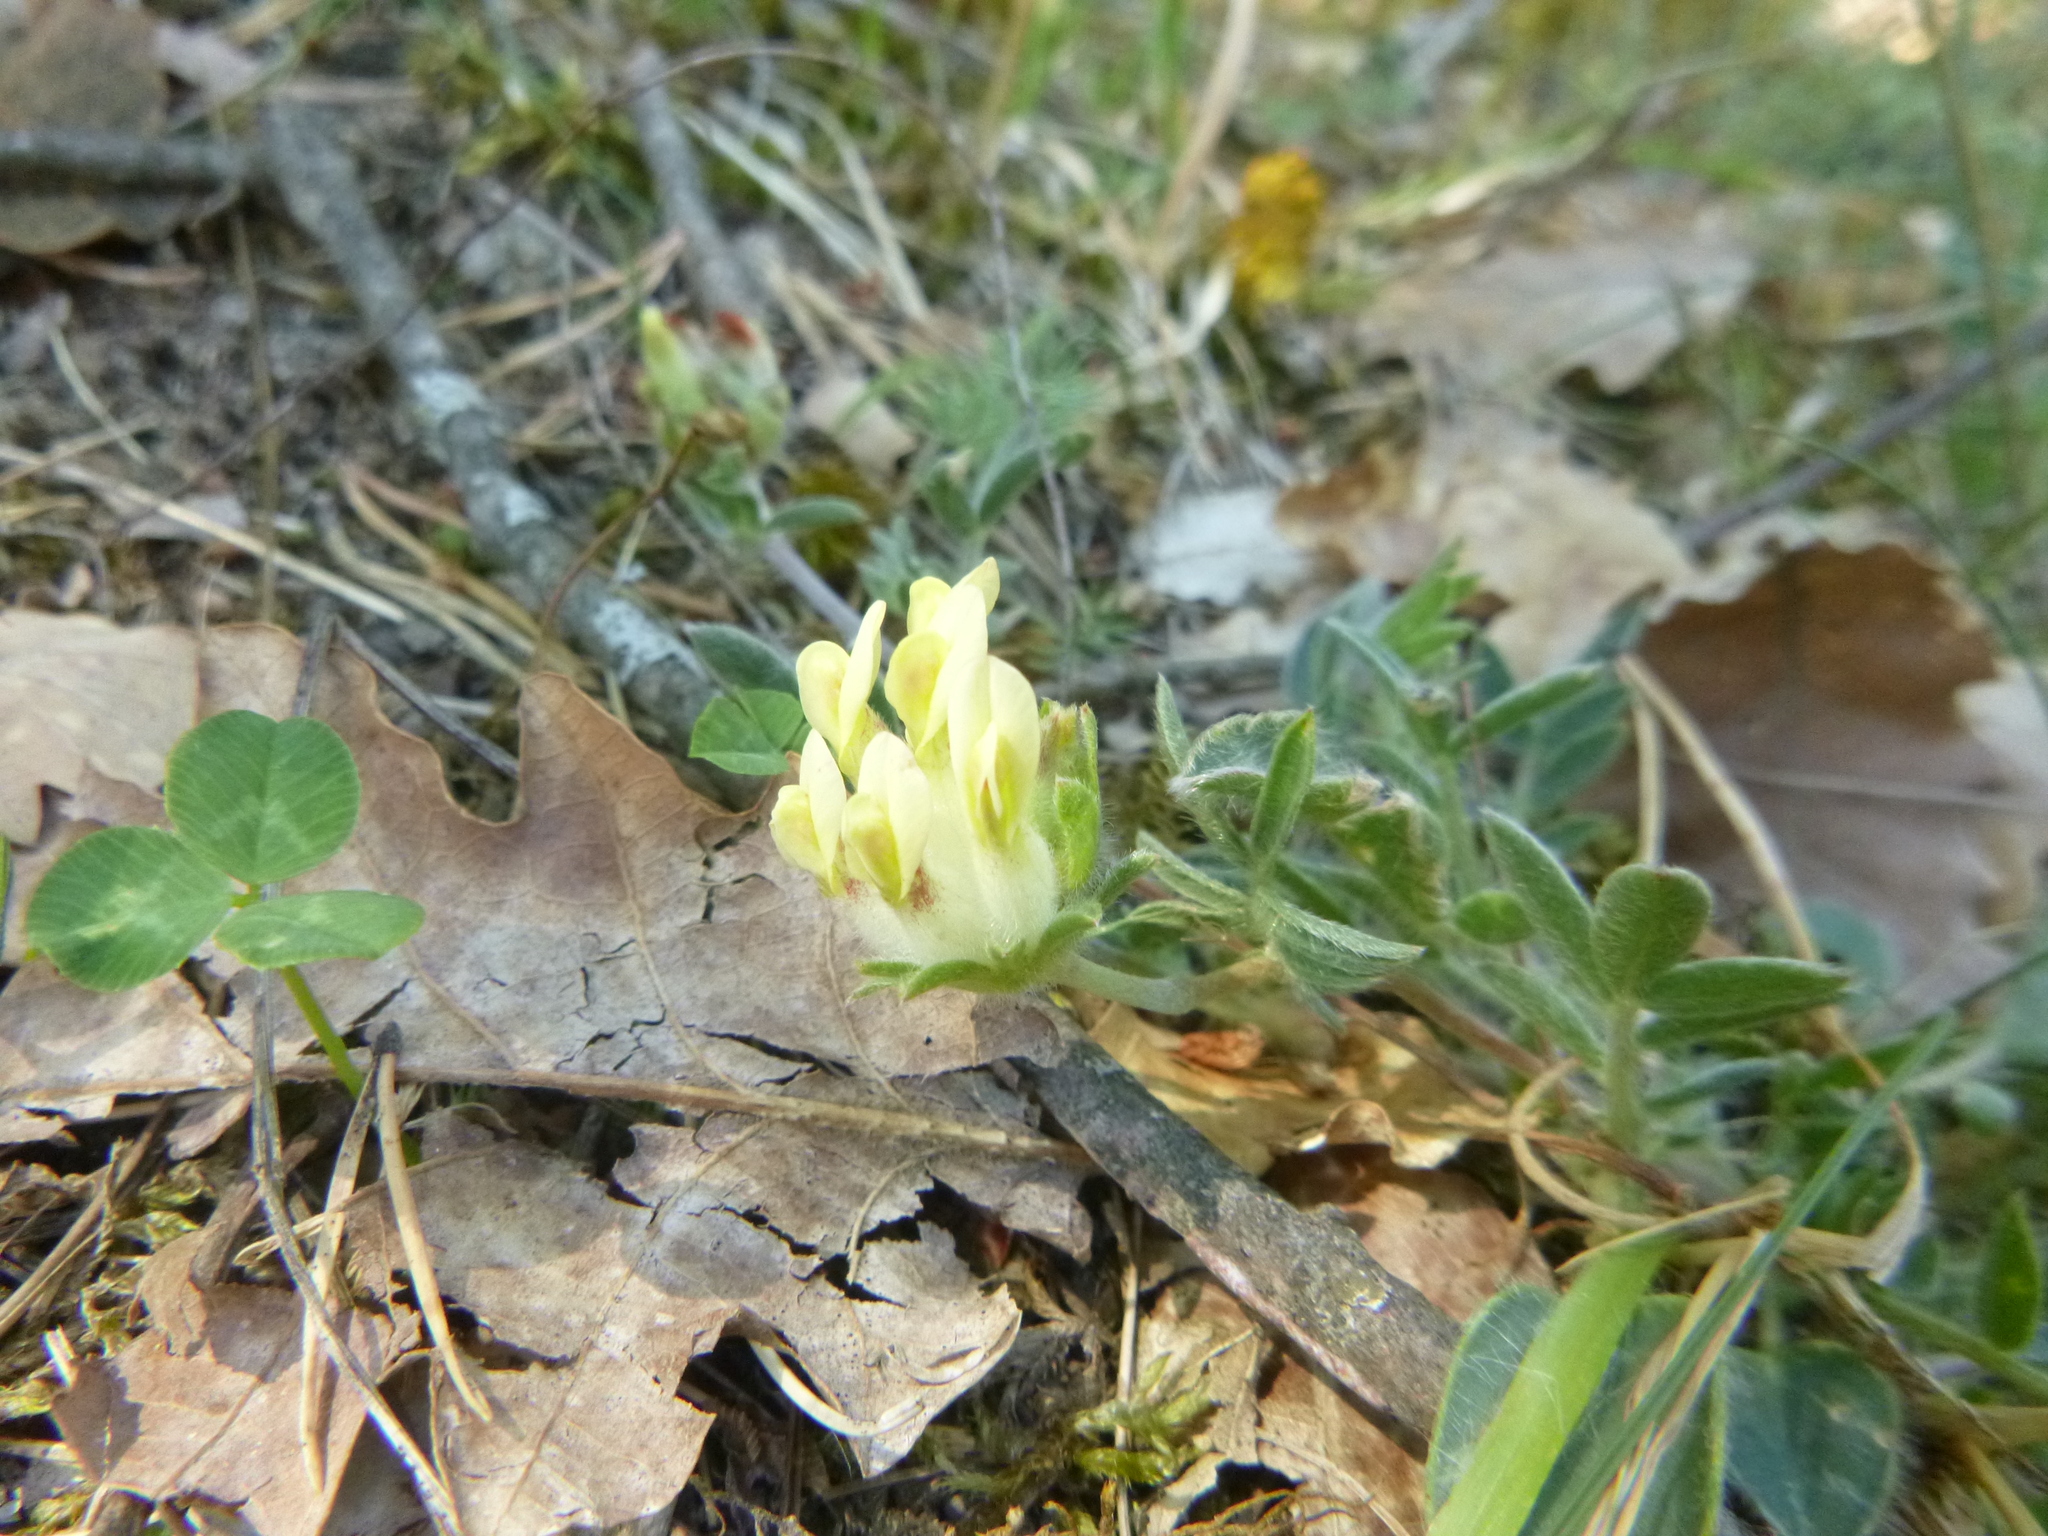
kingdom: Plantae
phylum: Tracheophyta
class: Magnoliopsida
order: Fabales
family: Fabaceae
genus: Anthyllis
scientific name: Anthyllis vulneraria
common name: Kidney vetch
